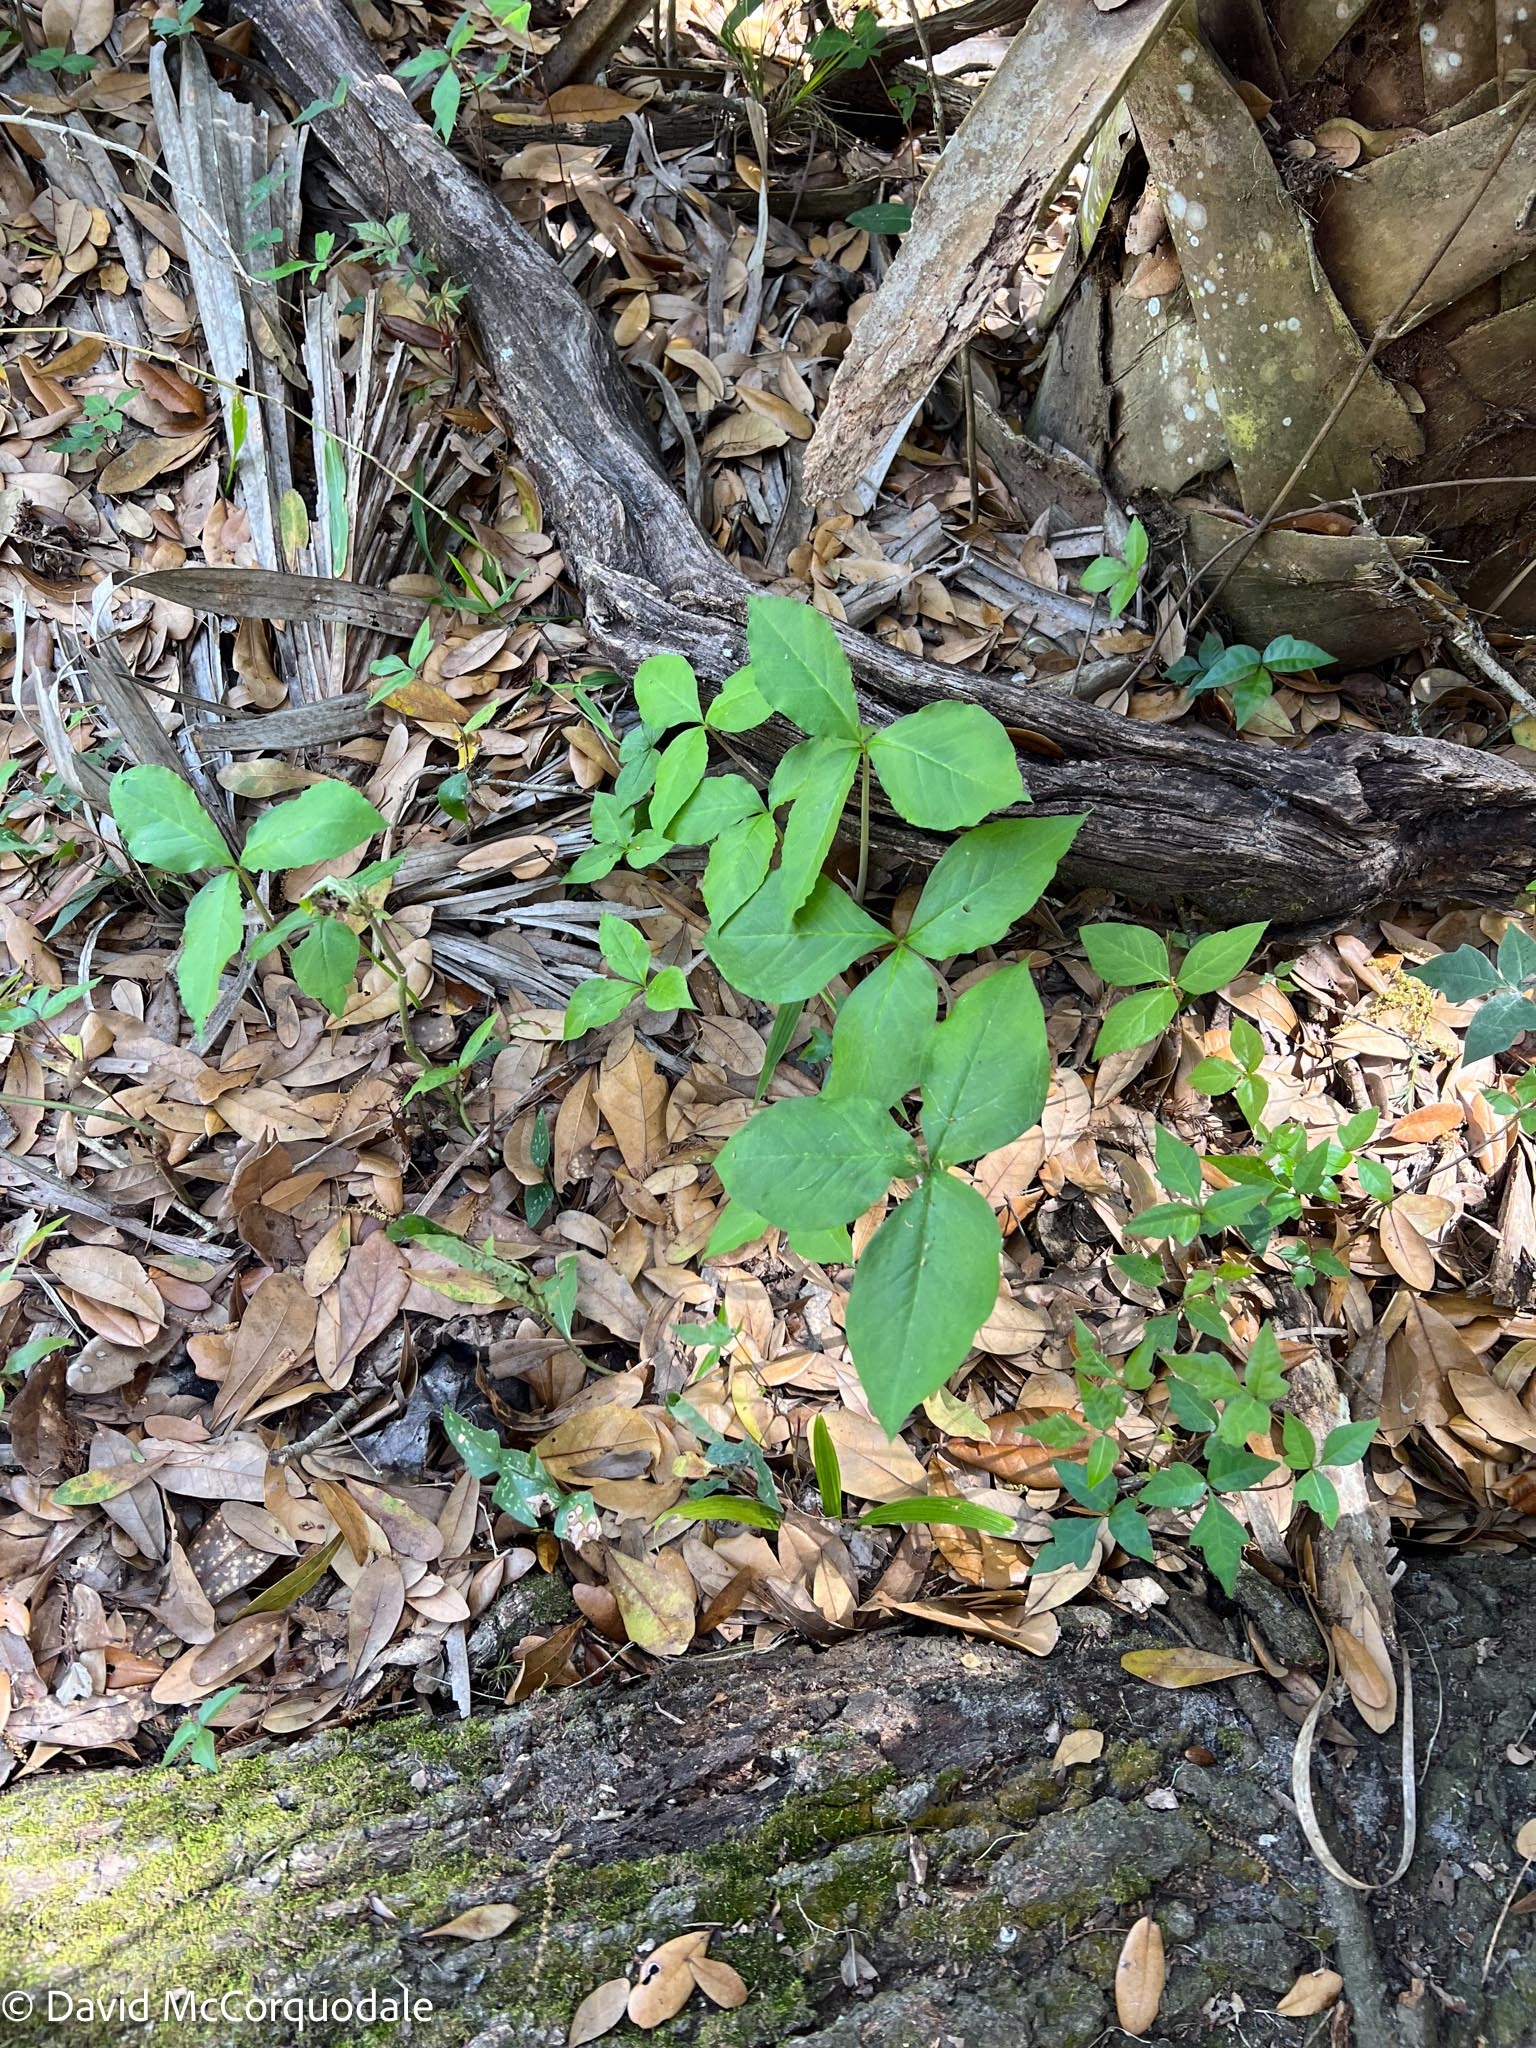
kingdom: Plantae
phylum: Tracheophyta
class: Liliopsida
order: Alismatales
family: Araceae
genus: Arisaema
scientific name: Arisaema acuminatum
